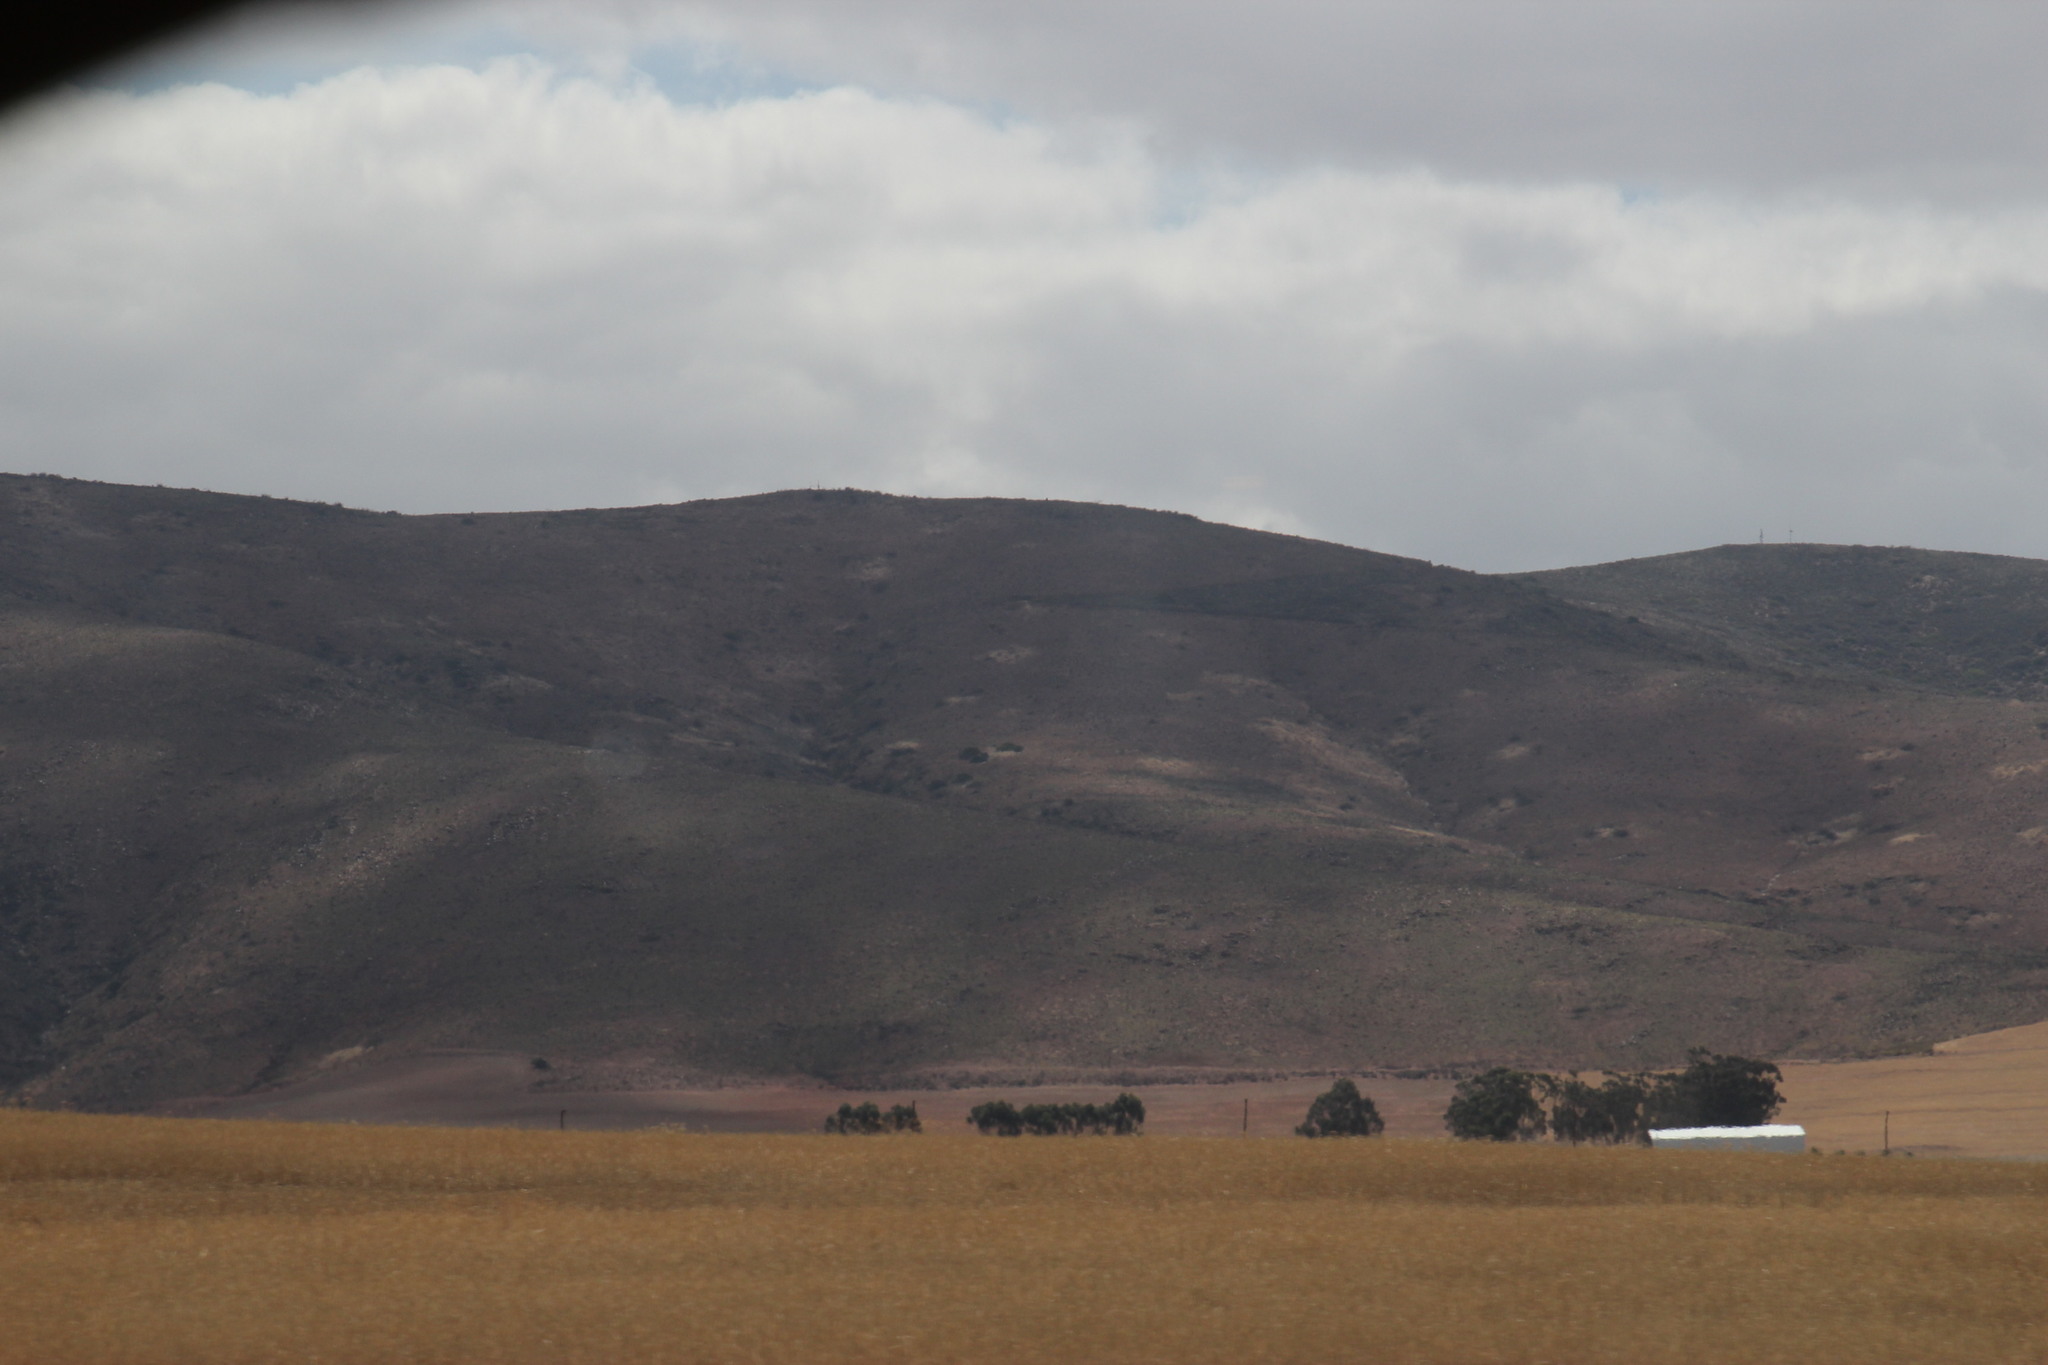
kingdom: Animalia
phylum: Arthropoda
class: Insecta
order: Blattodea
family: Hodotermitidae
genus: Microhodotermes
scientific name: Microhodotermes viator
